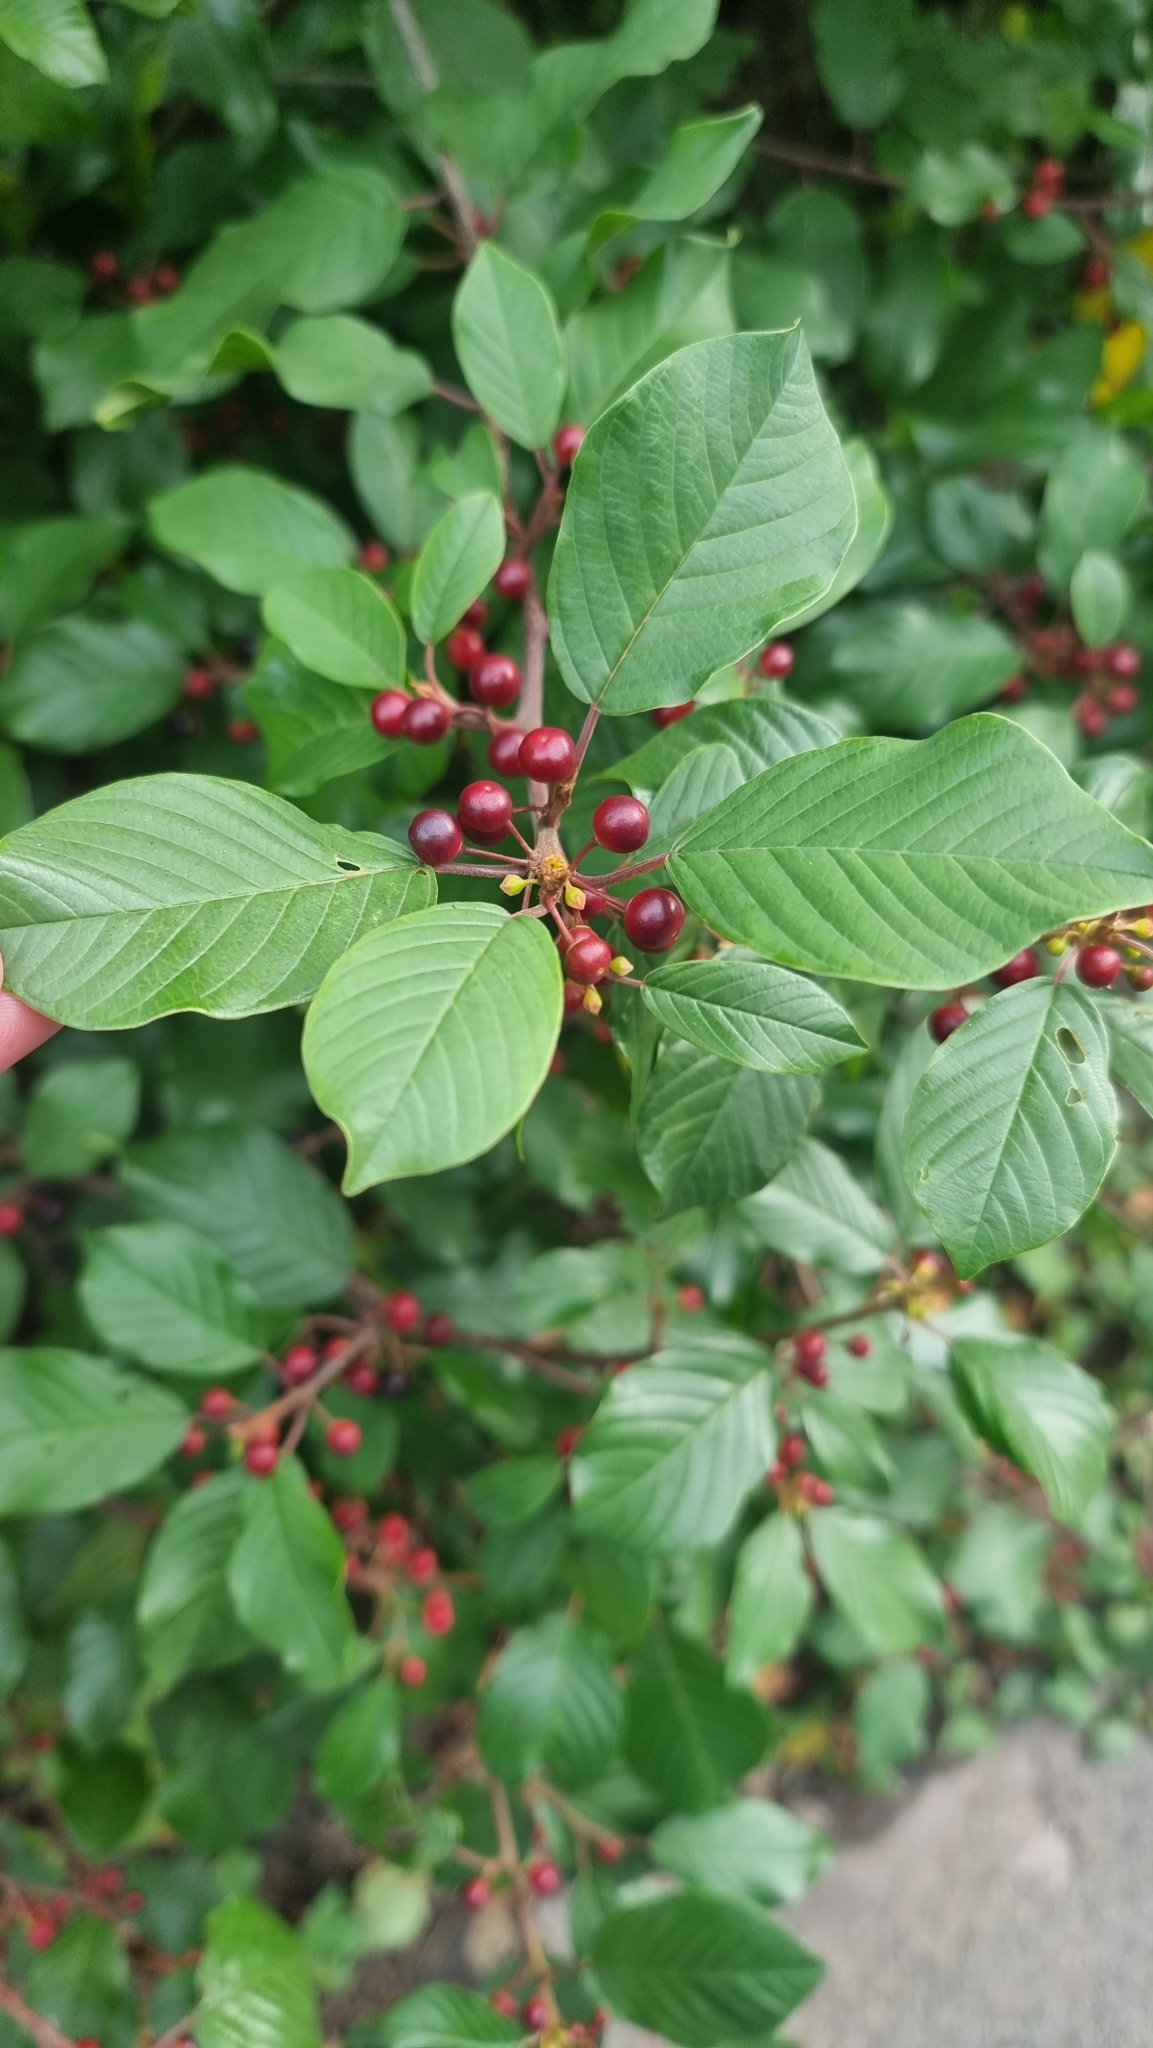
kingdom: Plantae
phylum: Tracheophyta
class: Magnoliopsida
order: Rosales
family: Rhamnaceae
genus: Frangula
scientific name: Frangula alnus
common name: Alder buckthorn
